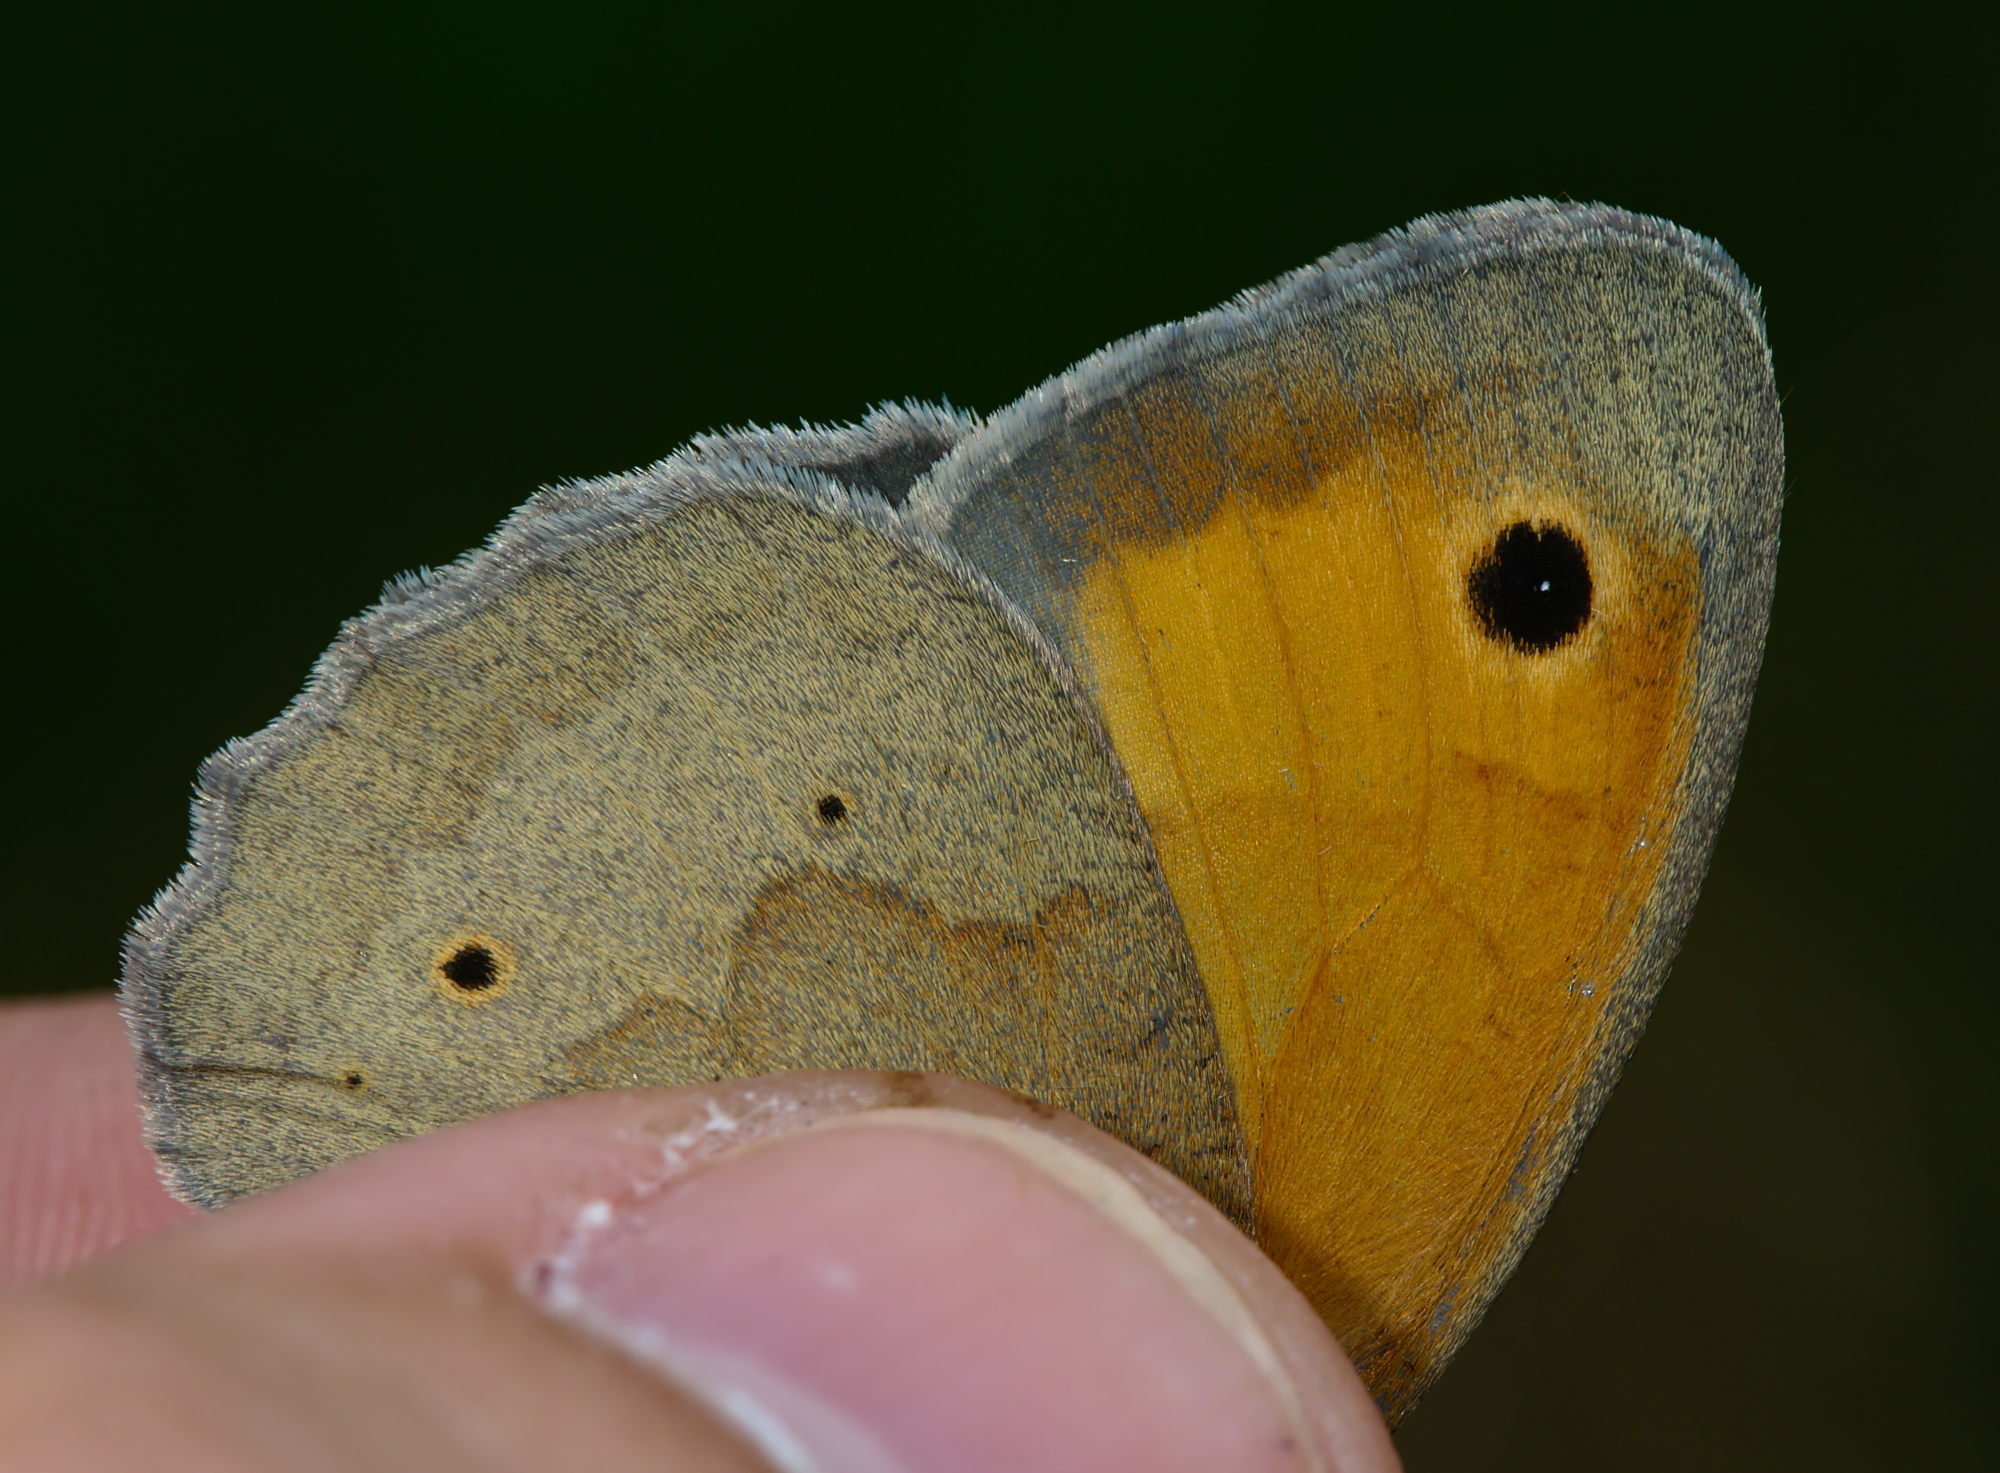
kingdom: Animalia
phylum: Arthropoda
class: Insecta
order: Lepidoptera
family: Nymphalidae
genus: Maniola
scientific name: Maniola jurtina
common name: Meadow brown
